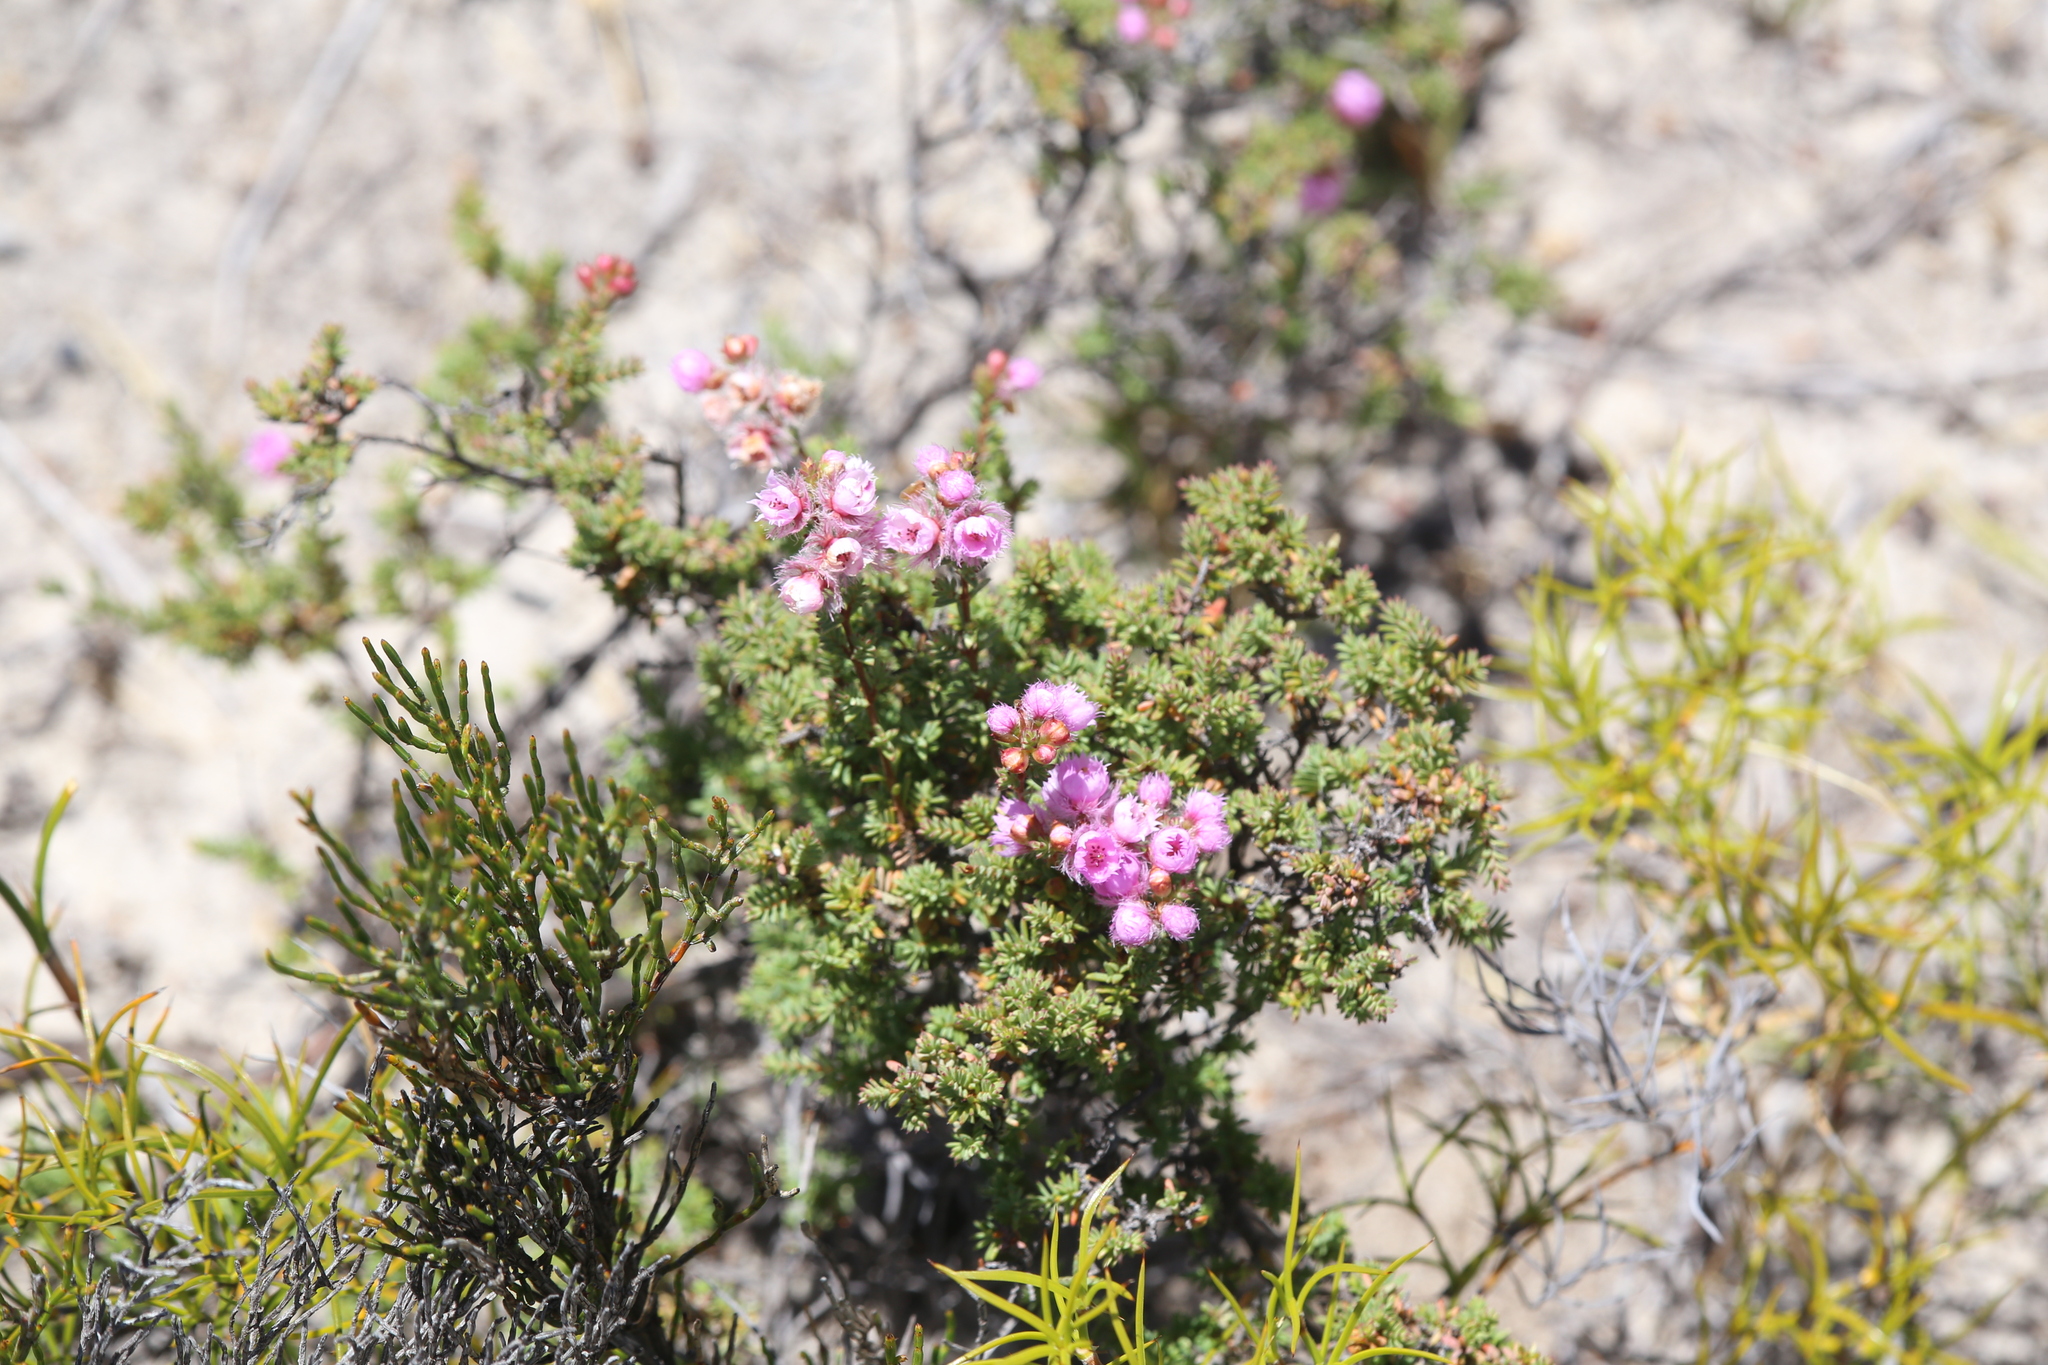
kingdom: Plantae
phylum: Tracheophyta
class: Magnoliopsida
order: Myrtales
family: Myrtaceae
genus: Verticordia
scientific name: Verticordia pennigera
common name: Native-tea
